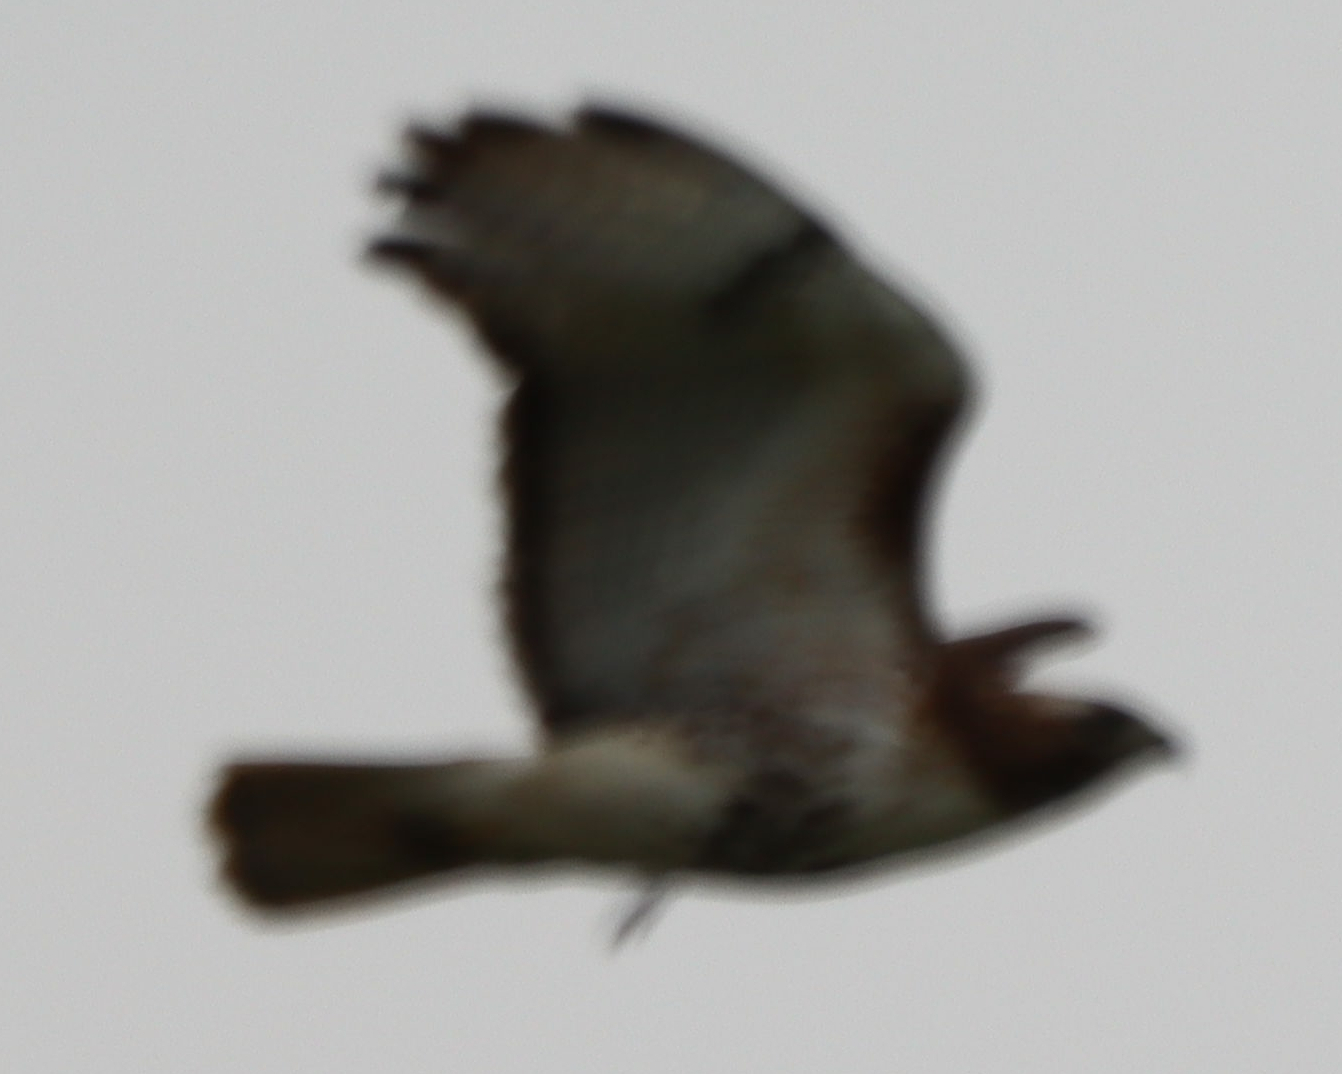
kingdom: Animalia
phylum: Chordata
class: Aves
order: Accipitriformes
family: Accipitridae
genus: Buteo
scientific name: Buteo jamaicensis
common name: Red-tailed hawk
